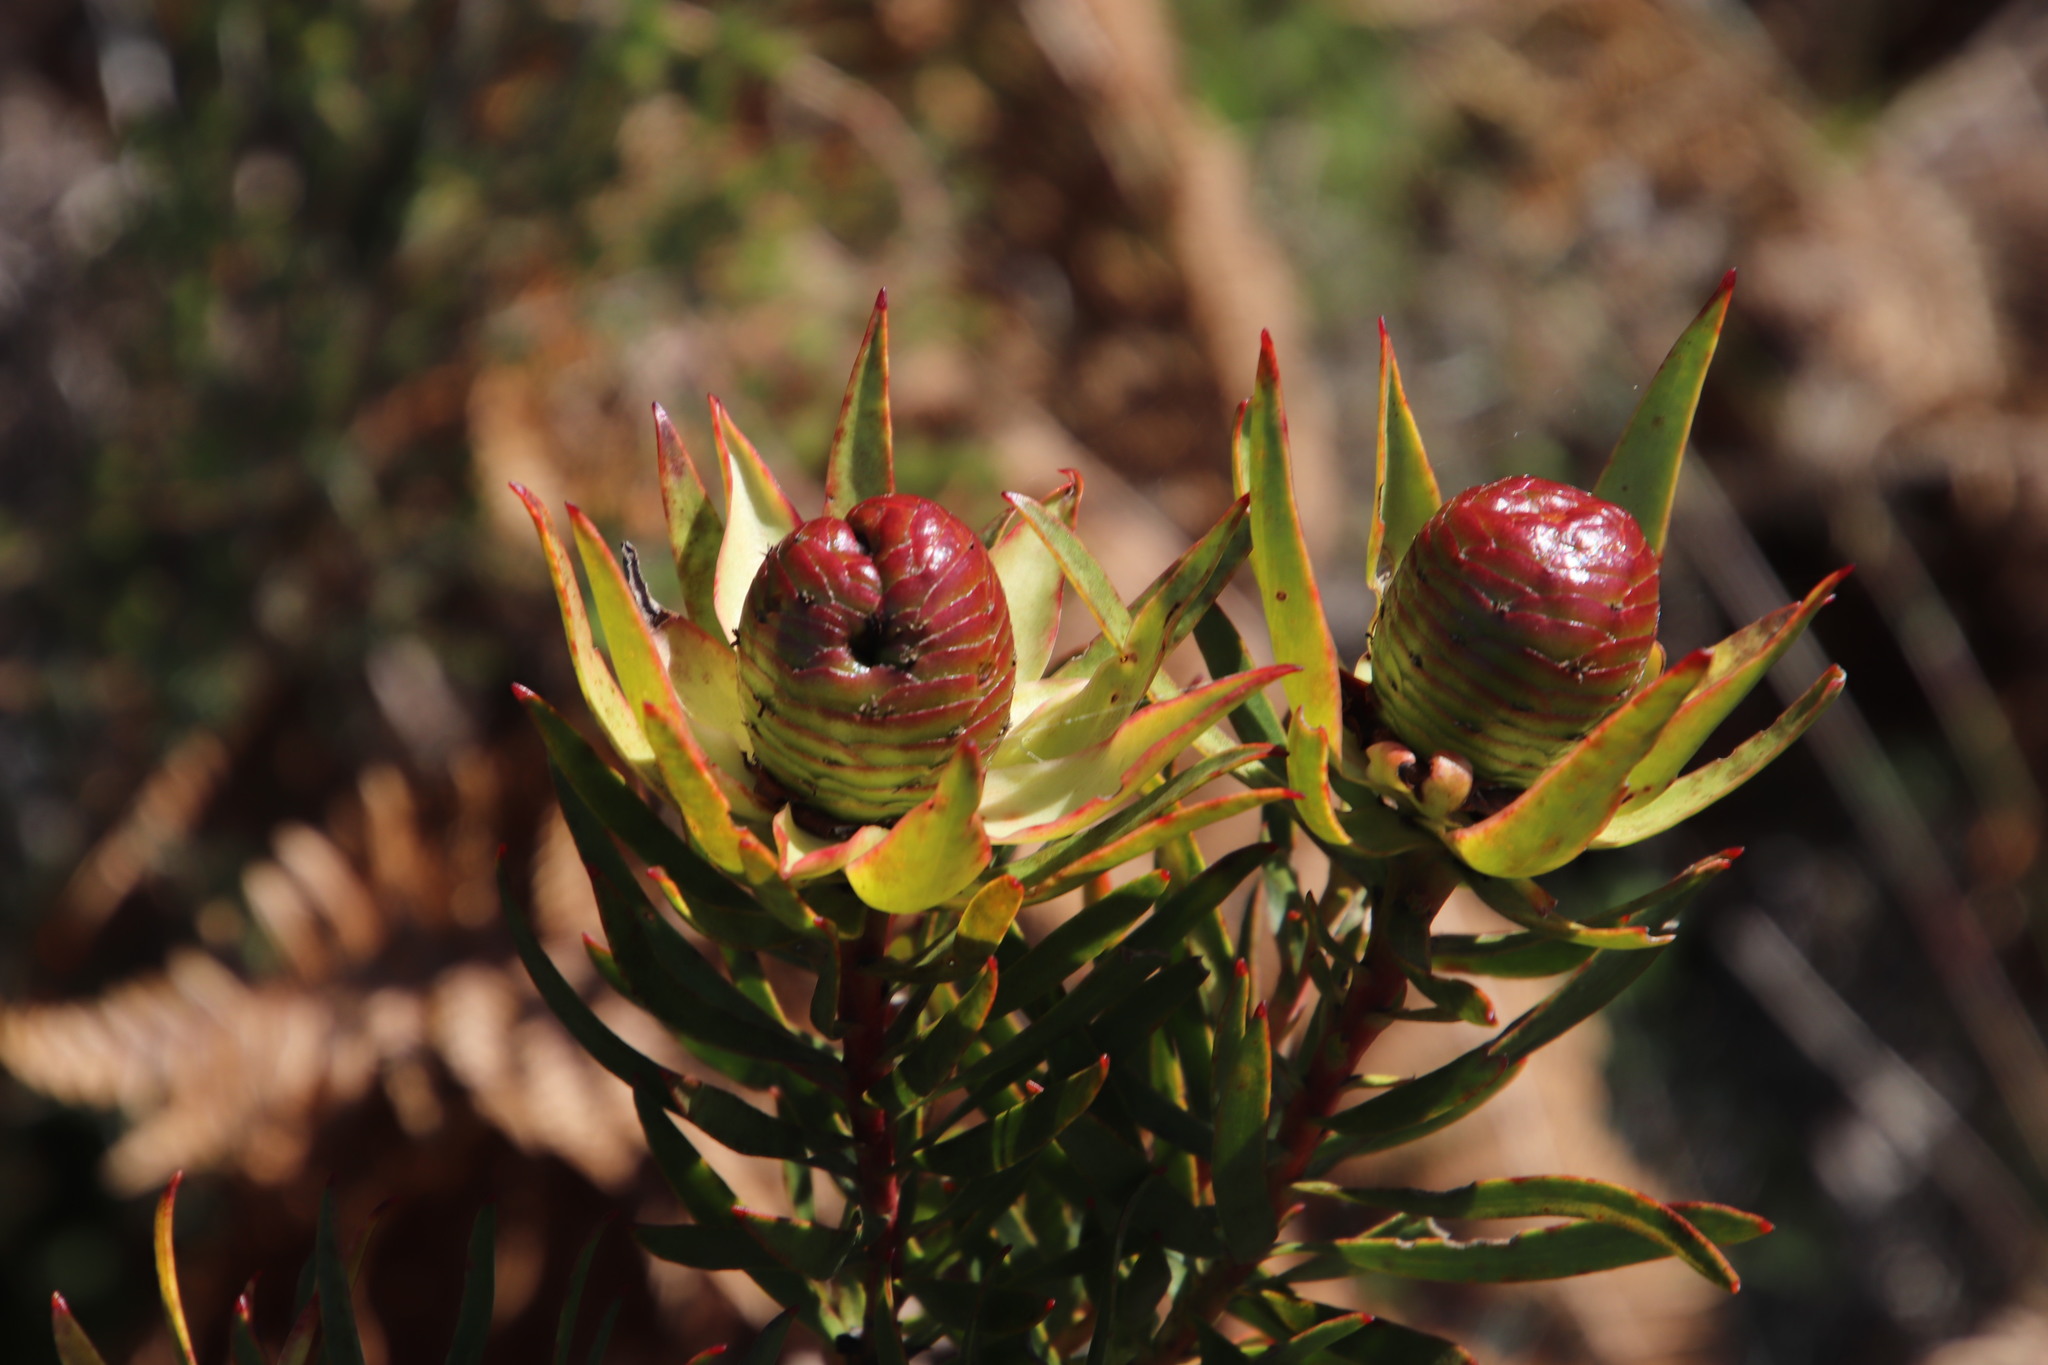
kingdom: Plantae
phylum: Tracheophyta
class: Magnoliopsida
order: Proteales
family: Proteaceae
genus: Leucadendron
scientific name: Leucadendron spissifolium
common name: Spear-leaf conebush
